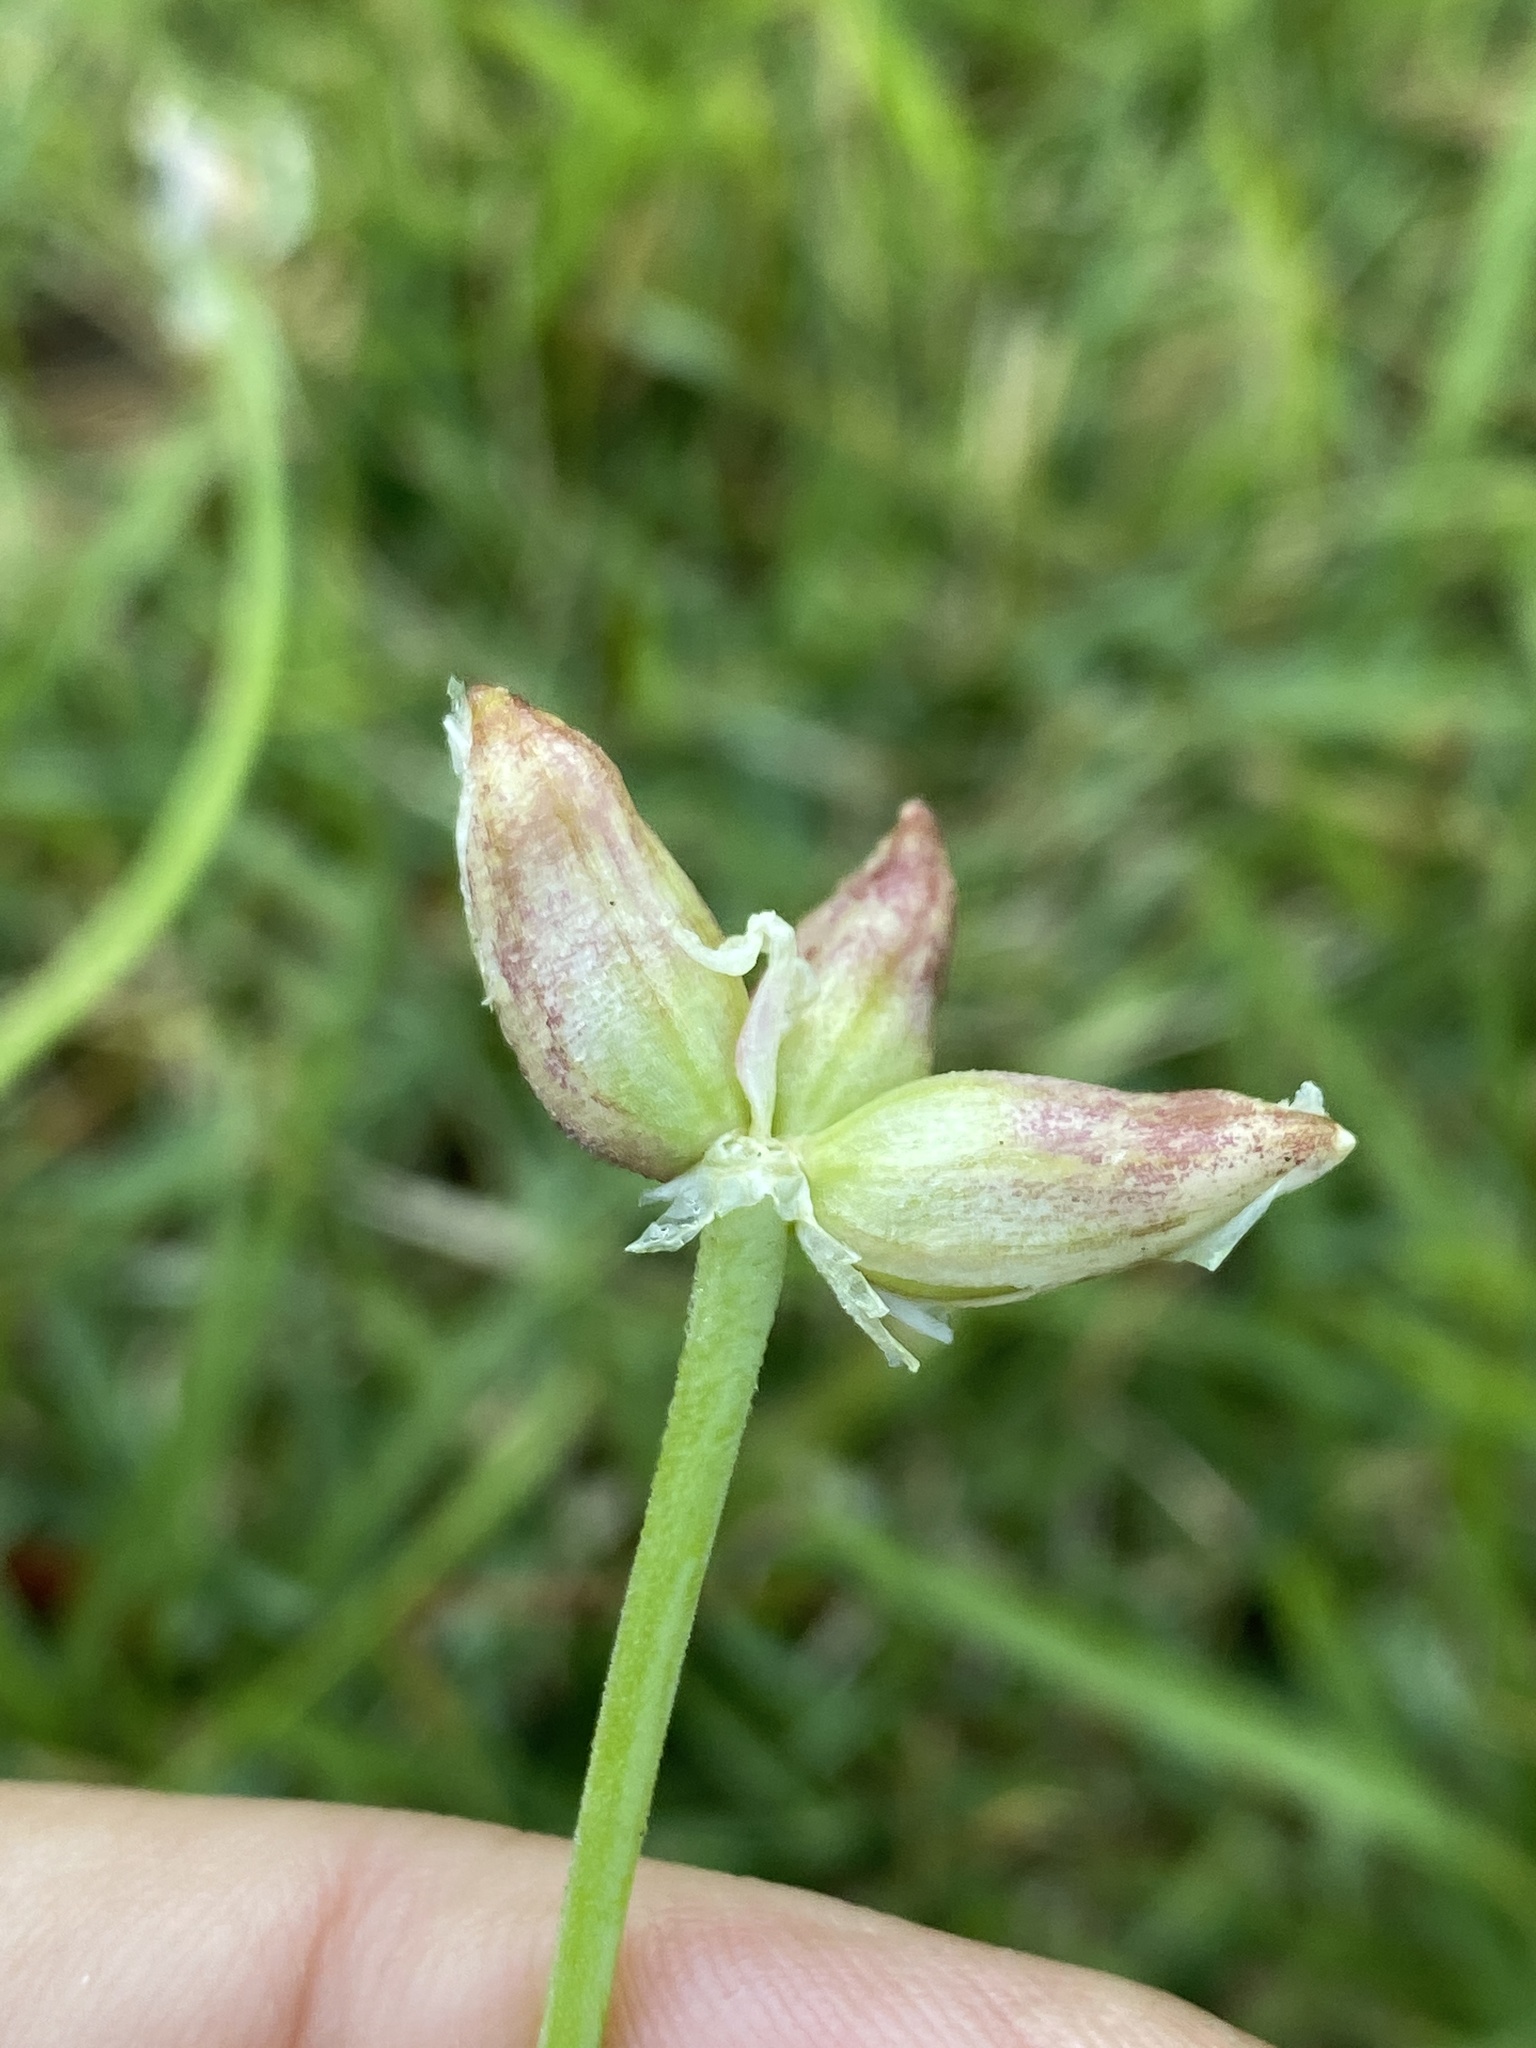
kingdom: Plantae
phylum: Tracheophyta
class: Liliopsida
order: Asparagales
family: Amaryllidaceae
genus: Allium
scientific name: Allium canadense
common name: Meadow garlic
